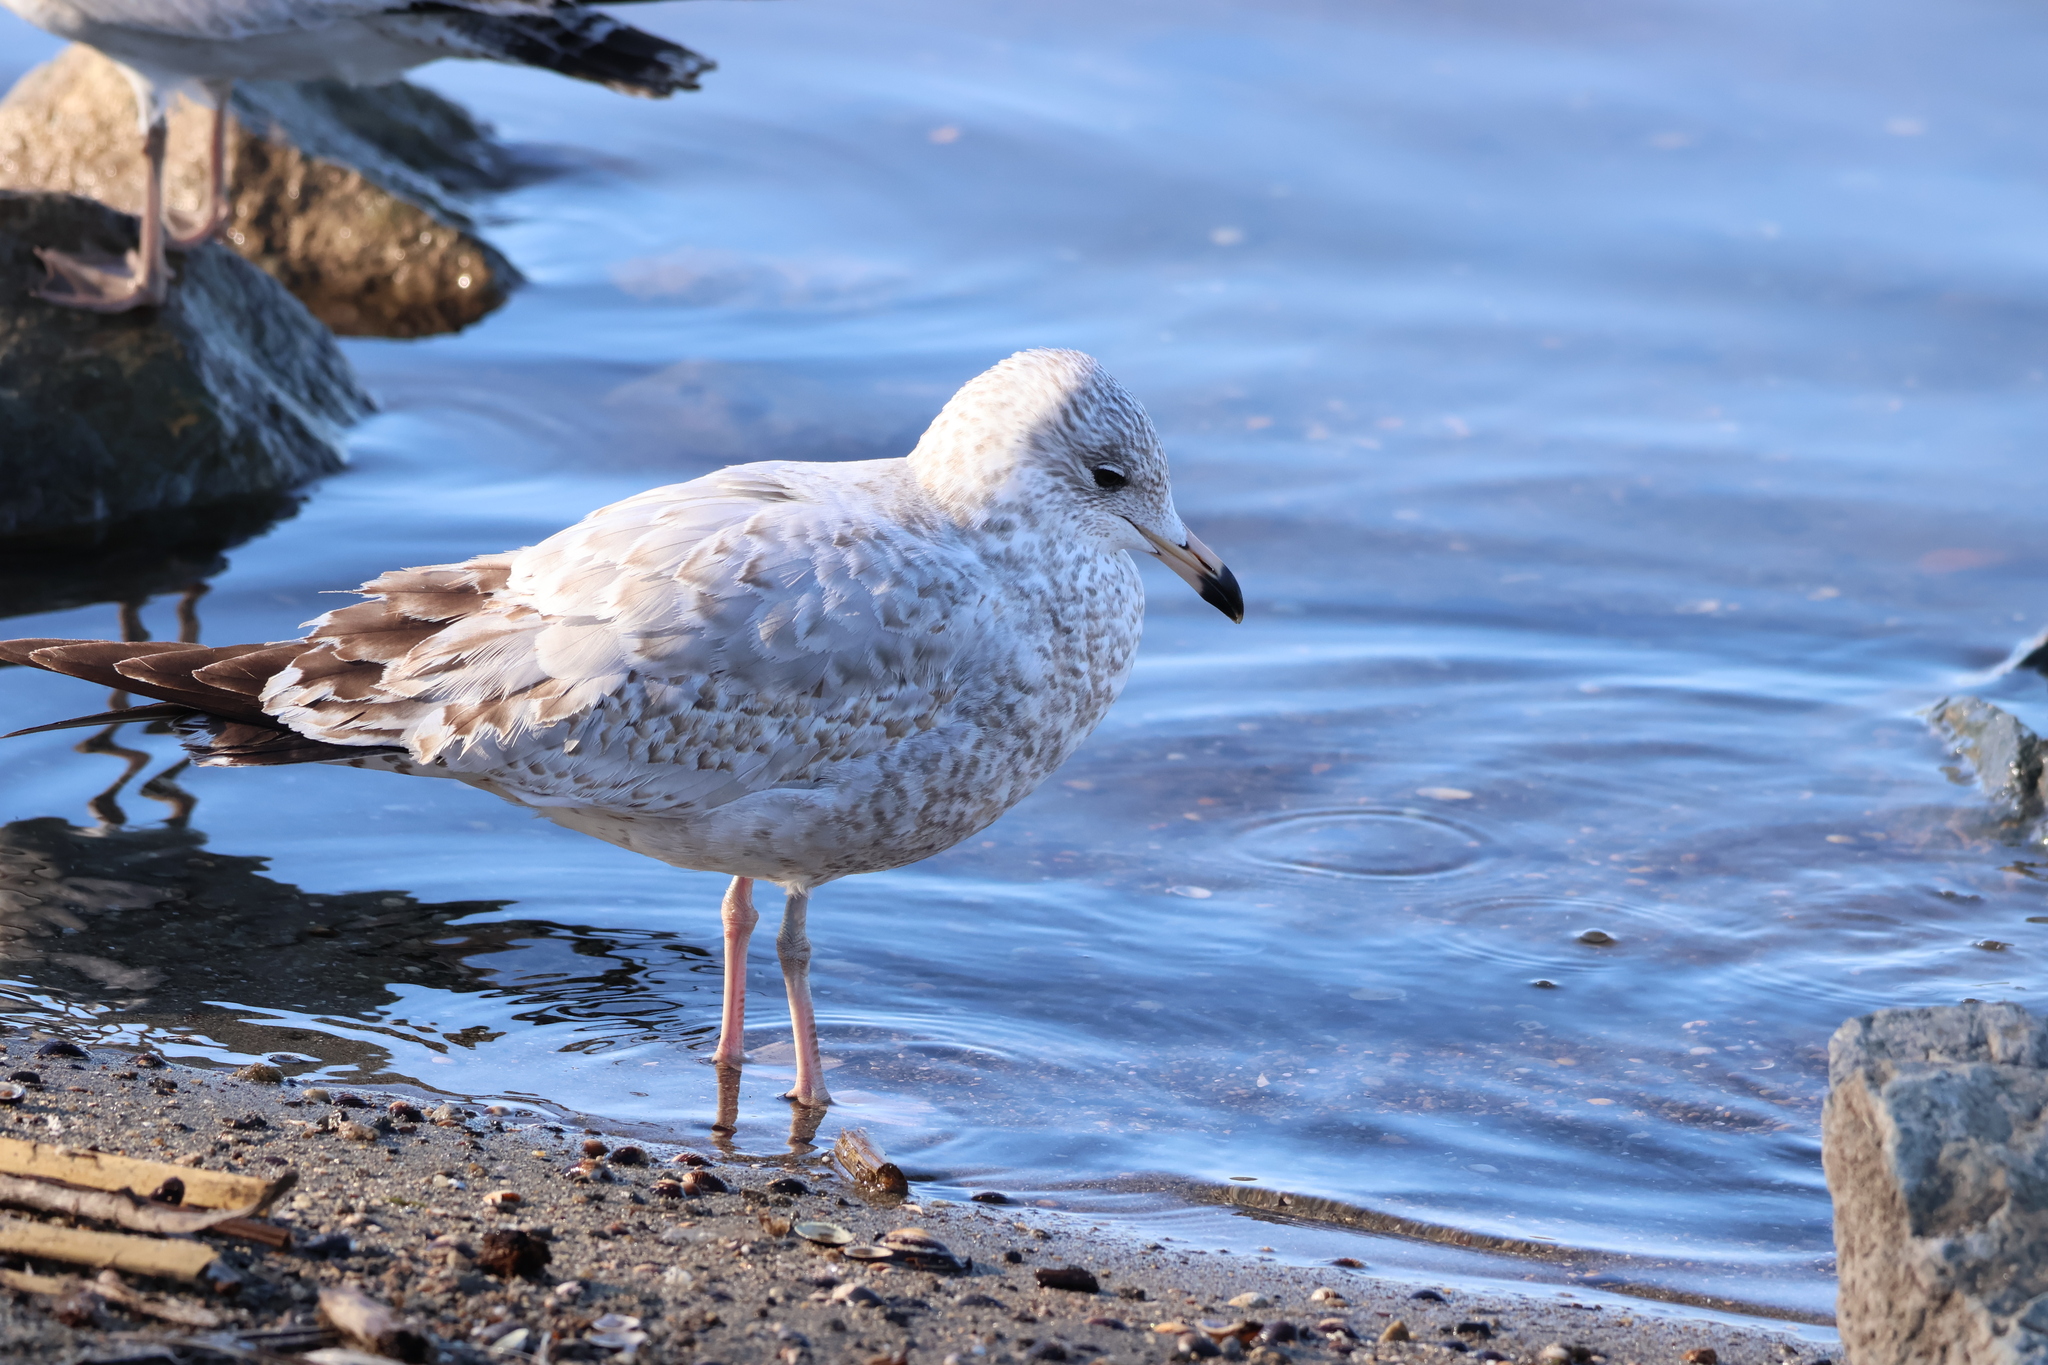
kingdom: Animalia
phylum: Chordata
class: Aves
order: Charadriiformes
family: Laridae
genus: Larus
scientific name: Larus delawarensis
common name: Ring-billed gull
